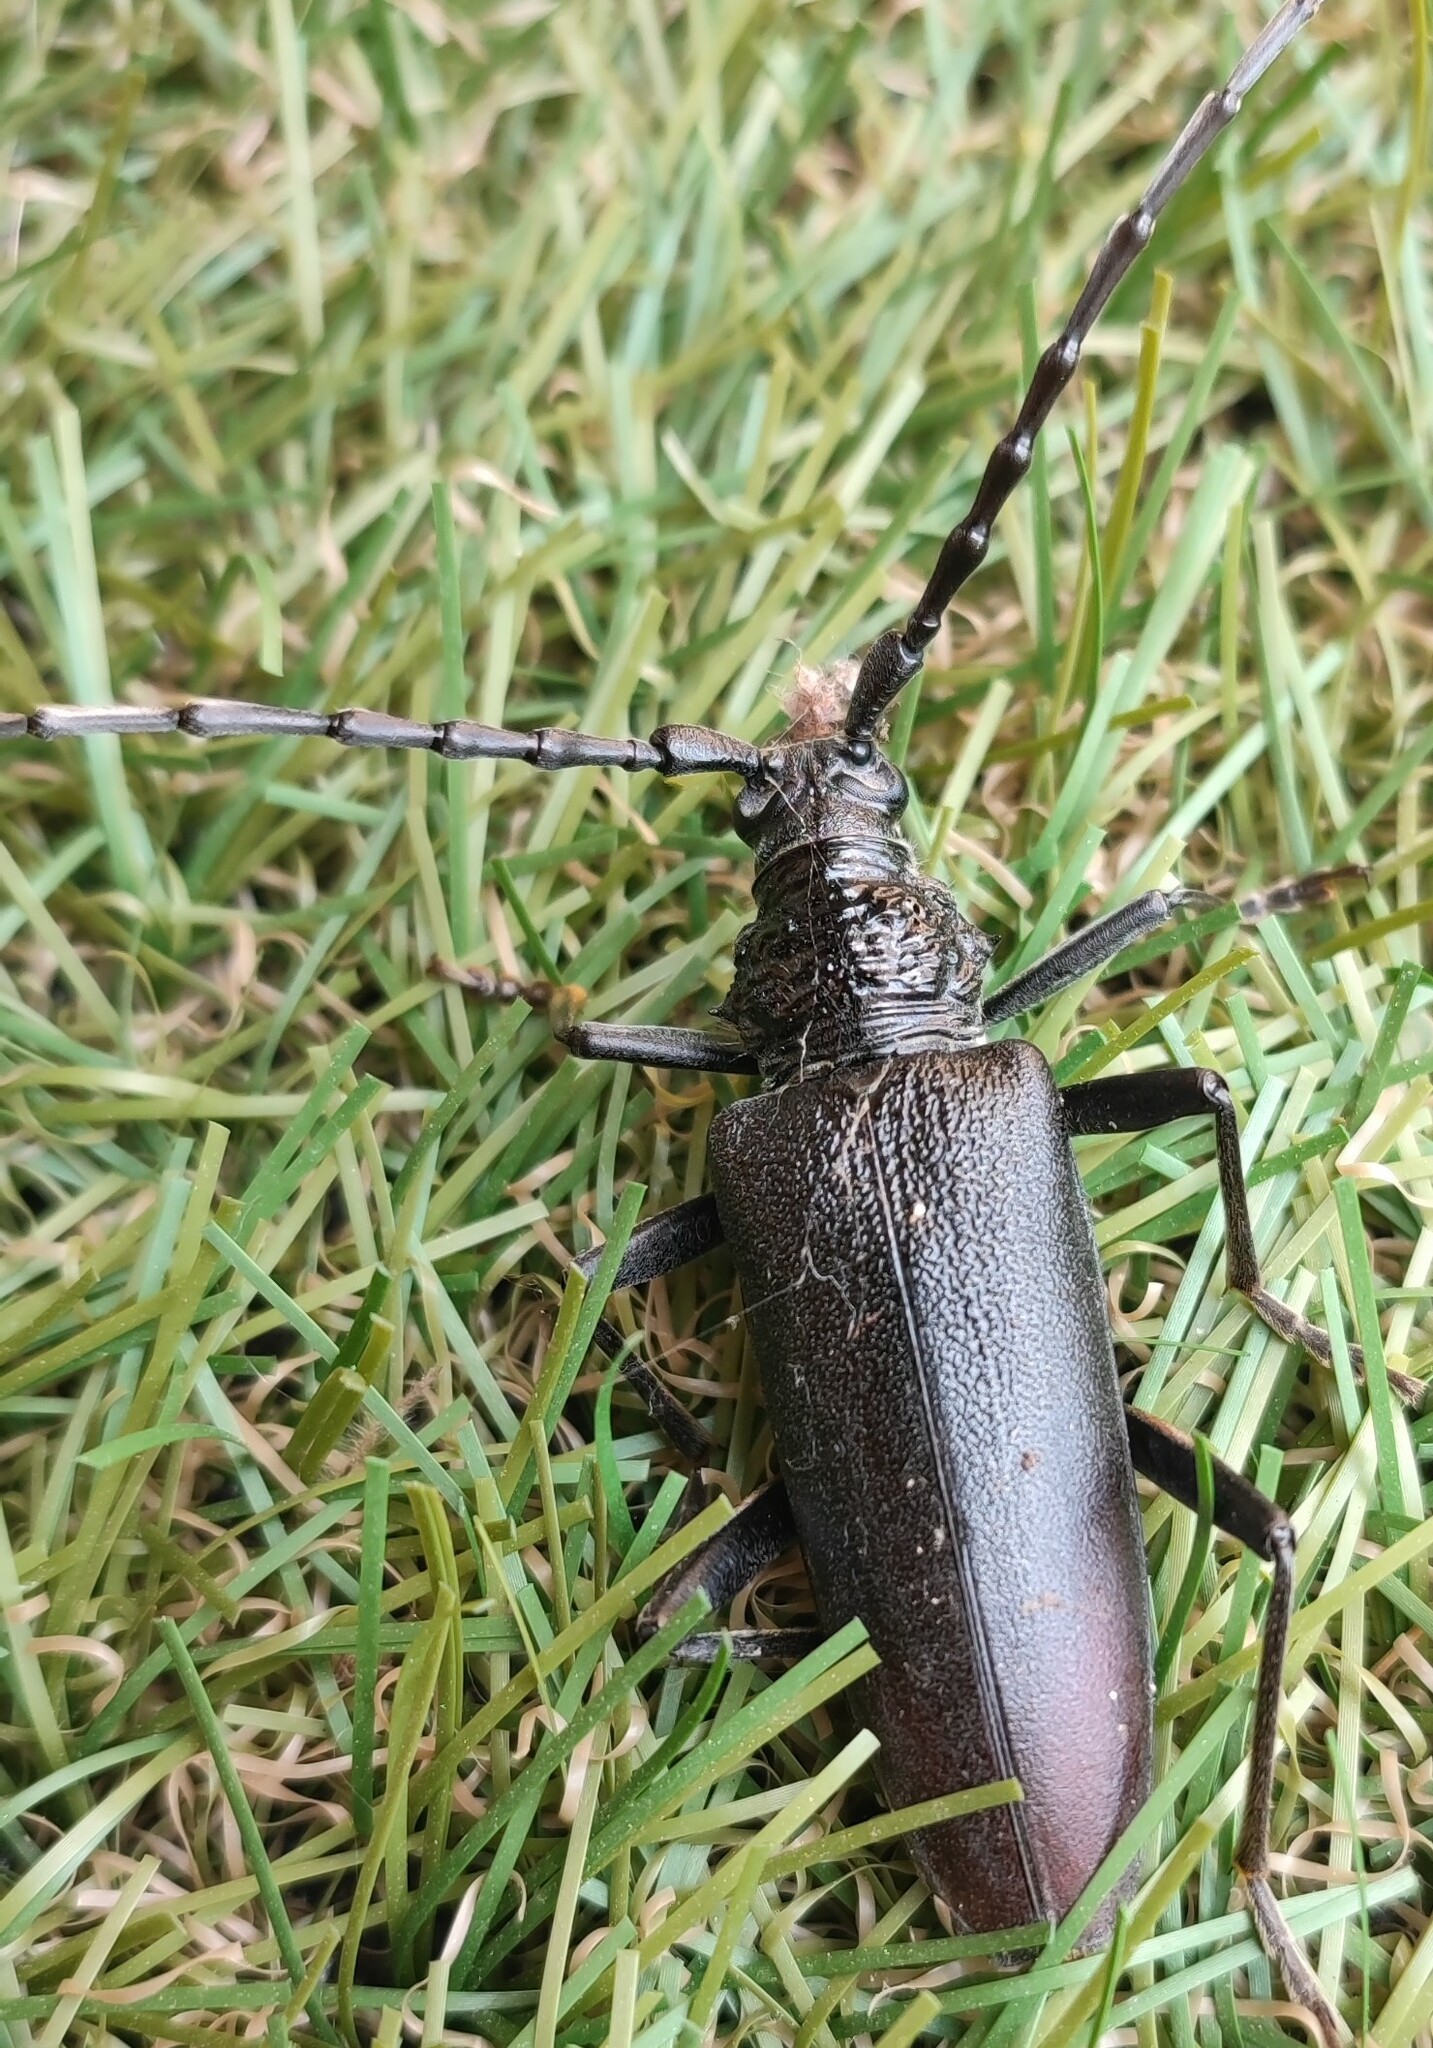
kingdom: Animalia
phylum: Arthropoda
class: Insecta
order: Coleoptera
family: Cerambycidae
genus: Cerambyx
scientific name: Cerambyx cerdo
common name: Cerambyx longicorn
